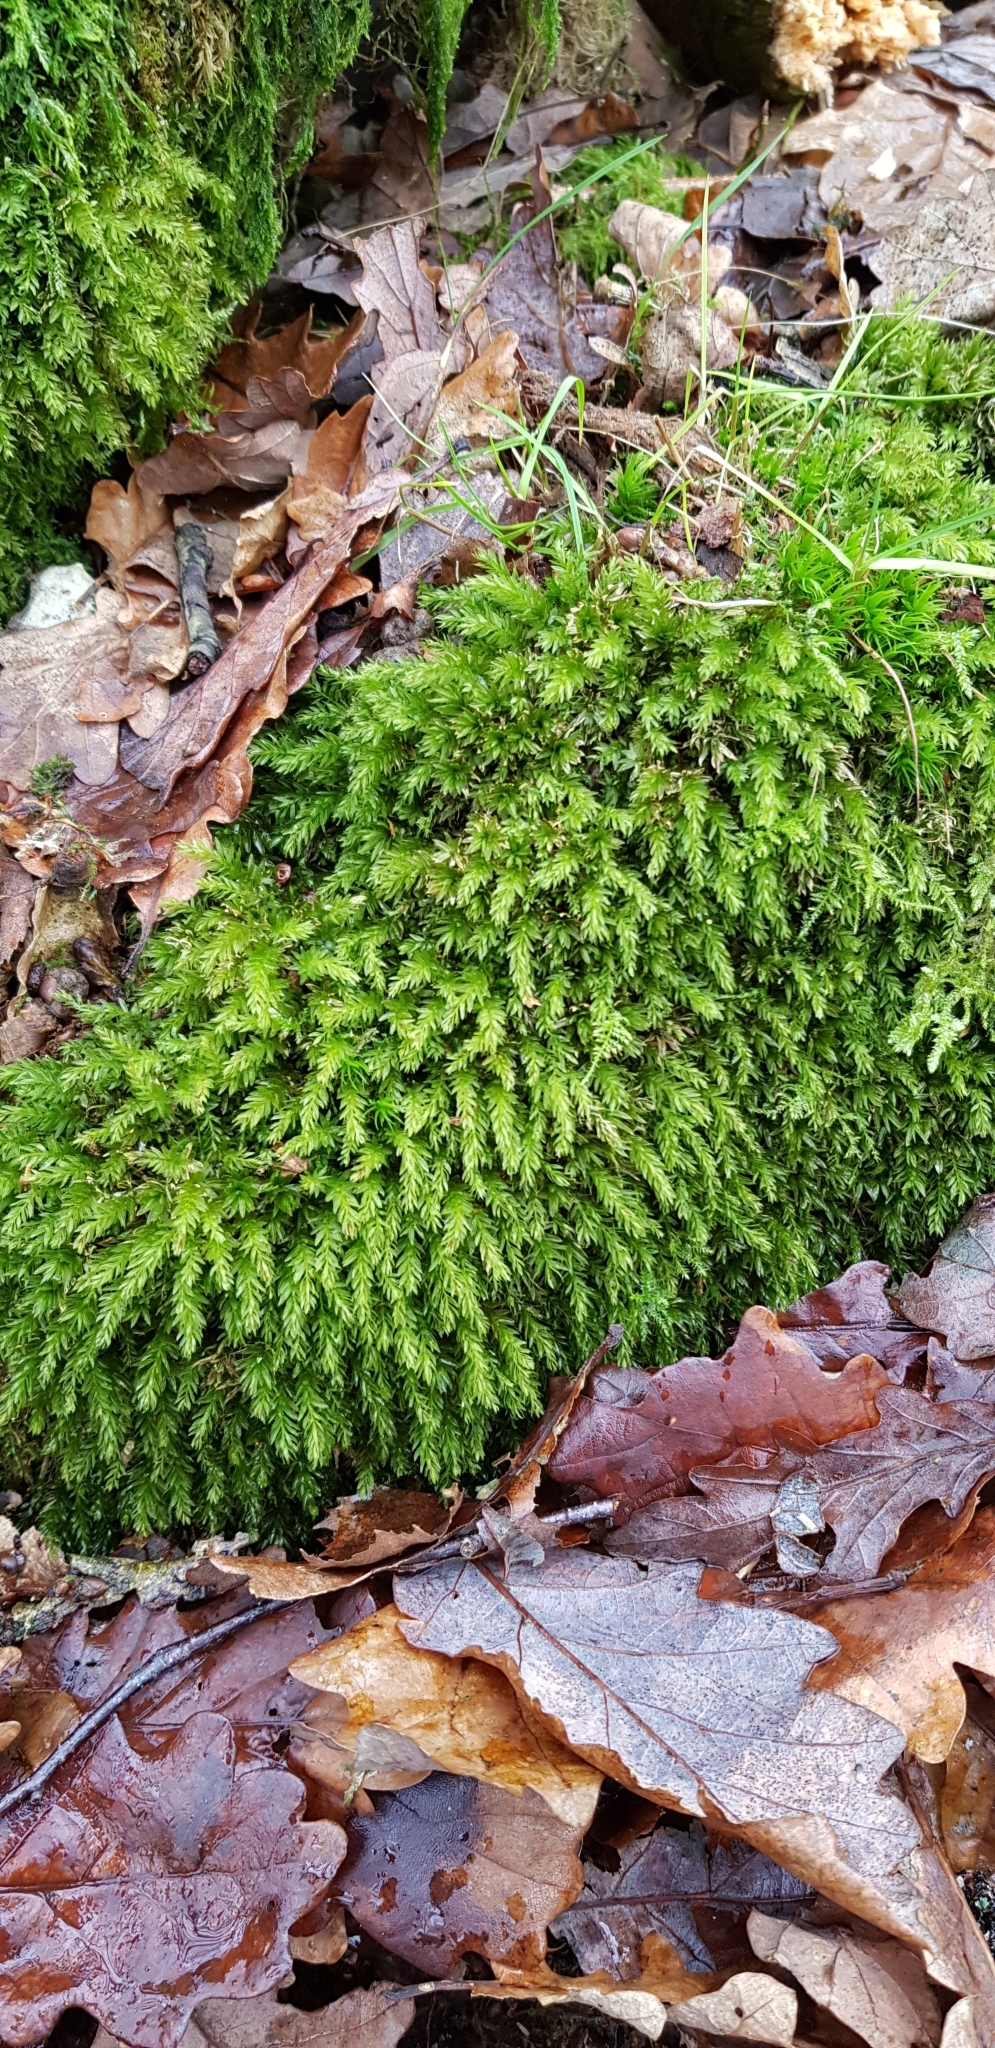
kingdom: Plantae
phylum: Bryophyta
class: Bryopsida
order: Bryales
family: Mniaceae
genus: Mnium
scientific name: Mnium hornum
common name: Swan's-neck leafy moss
